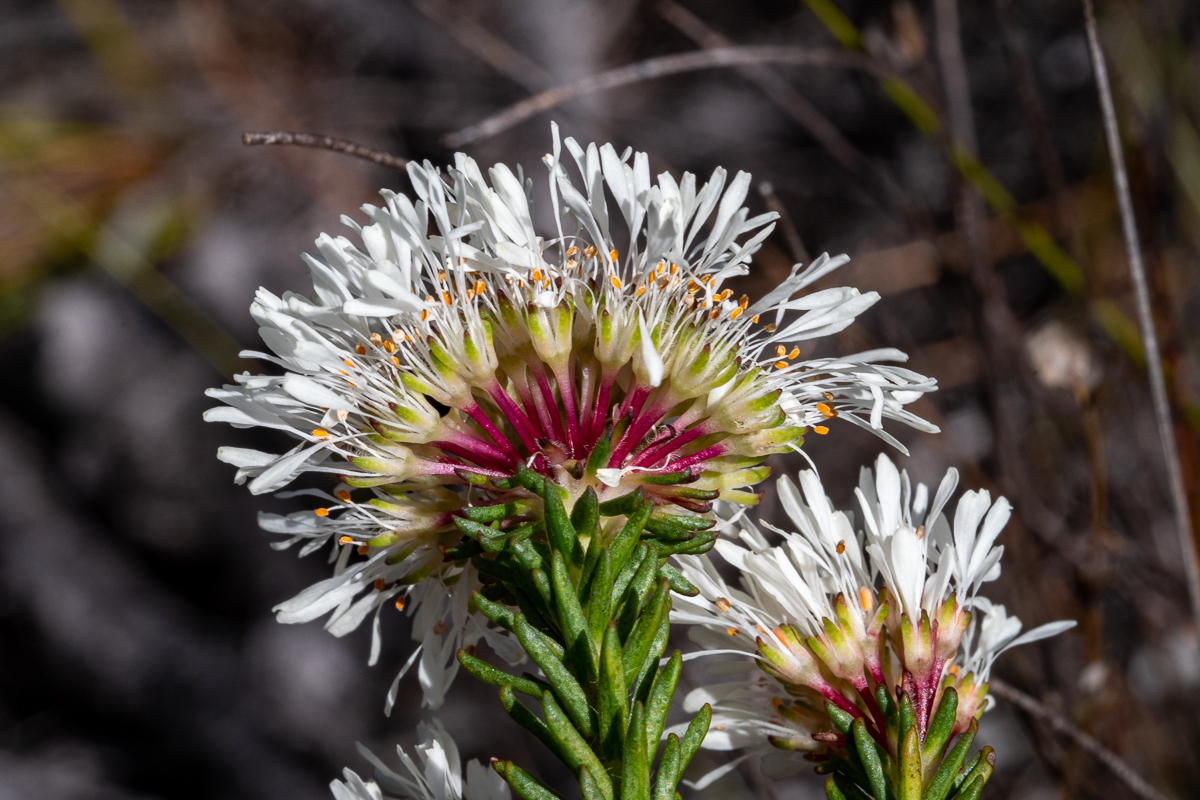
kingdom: Plantae
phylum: Tracheophyta
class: Magnoliopsida
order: Sapindales
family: Rutaceae
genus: Agathosma
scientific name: Agathosma bifida
